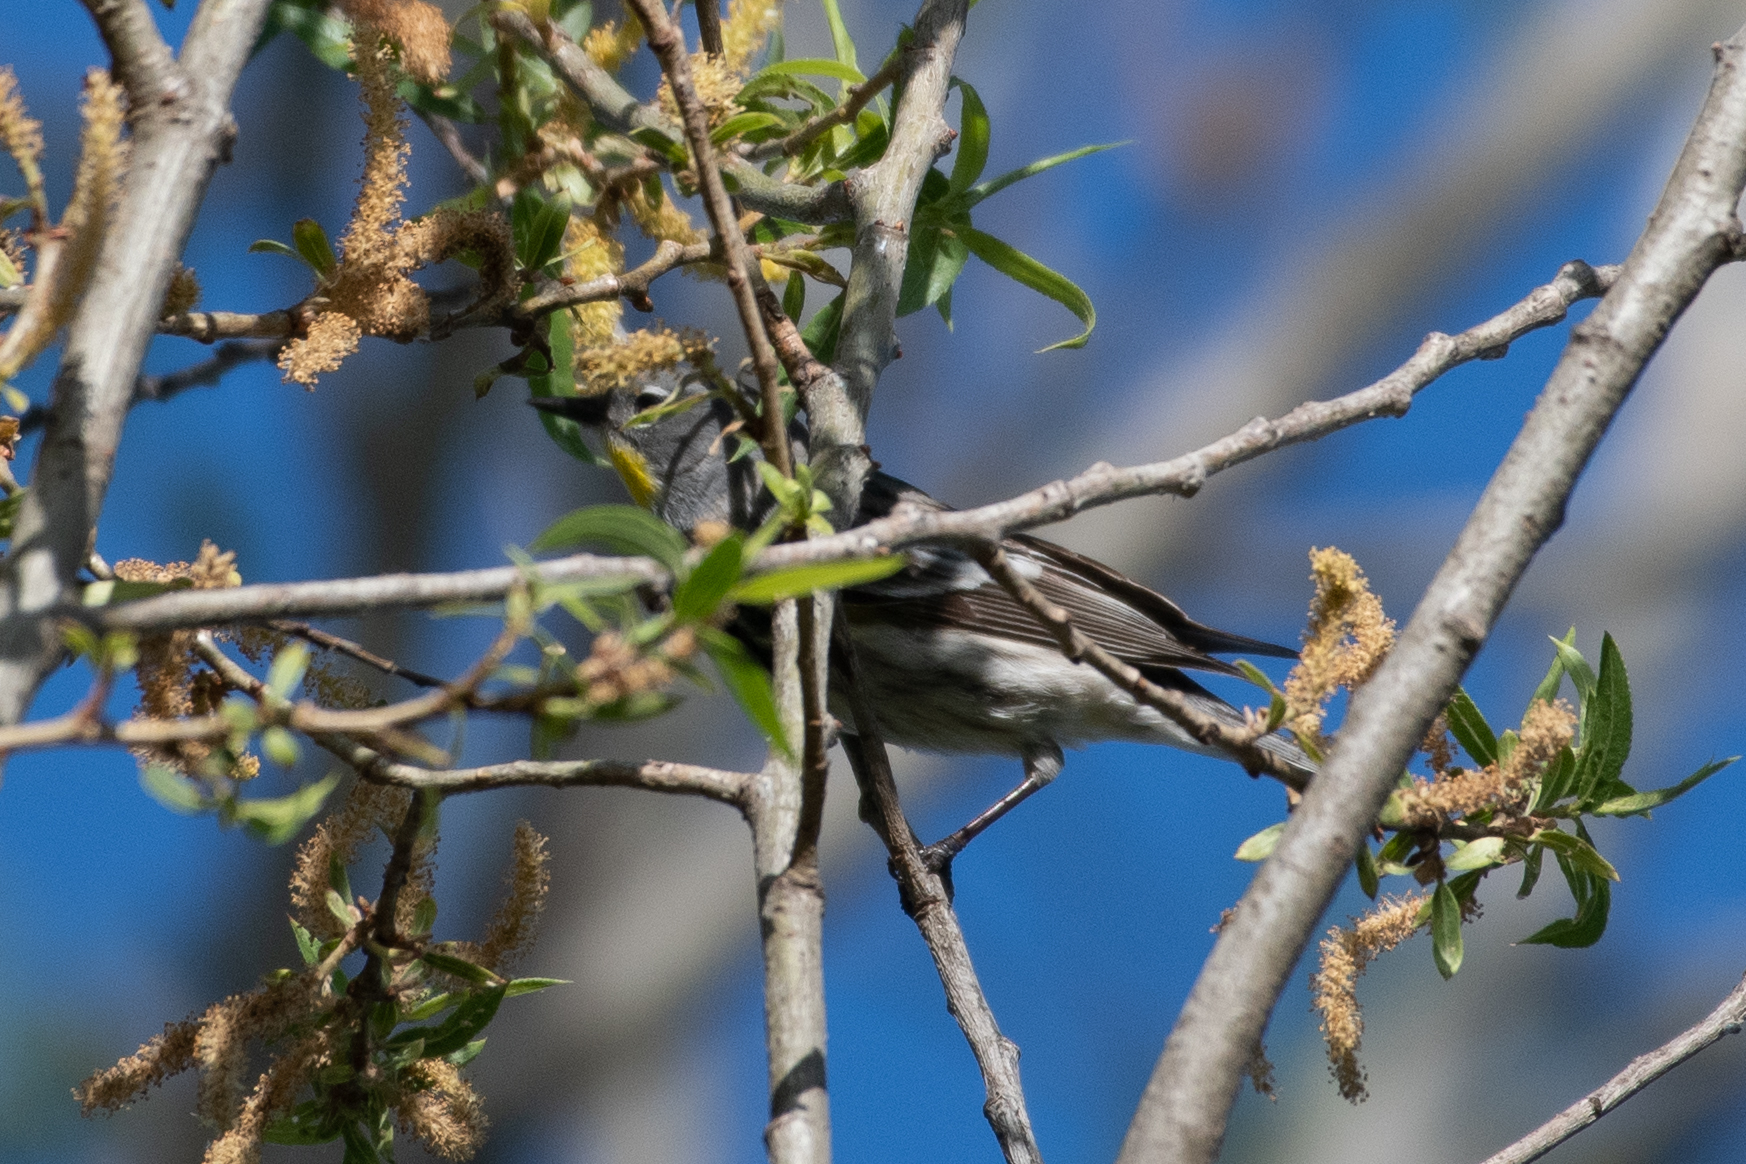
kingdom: Animalia
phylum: Chordata
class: Aves
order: Passeriformes
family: Parulidae
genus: Setophaga
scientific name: Setophaga coronata
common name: Myrtle warbler
